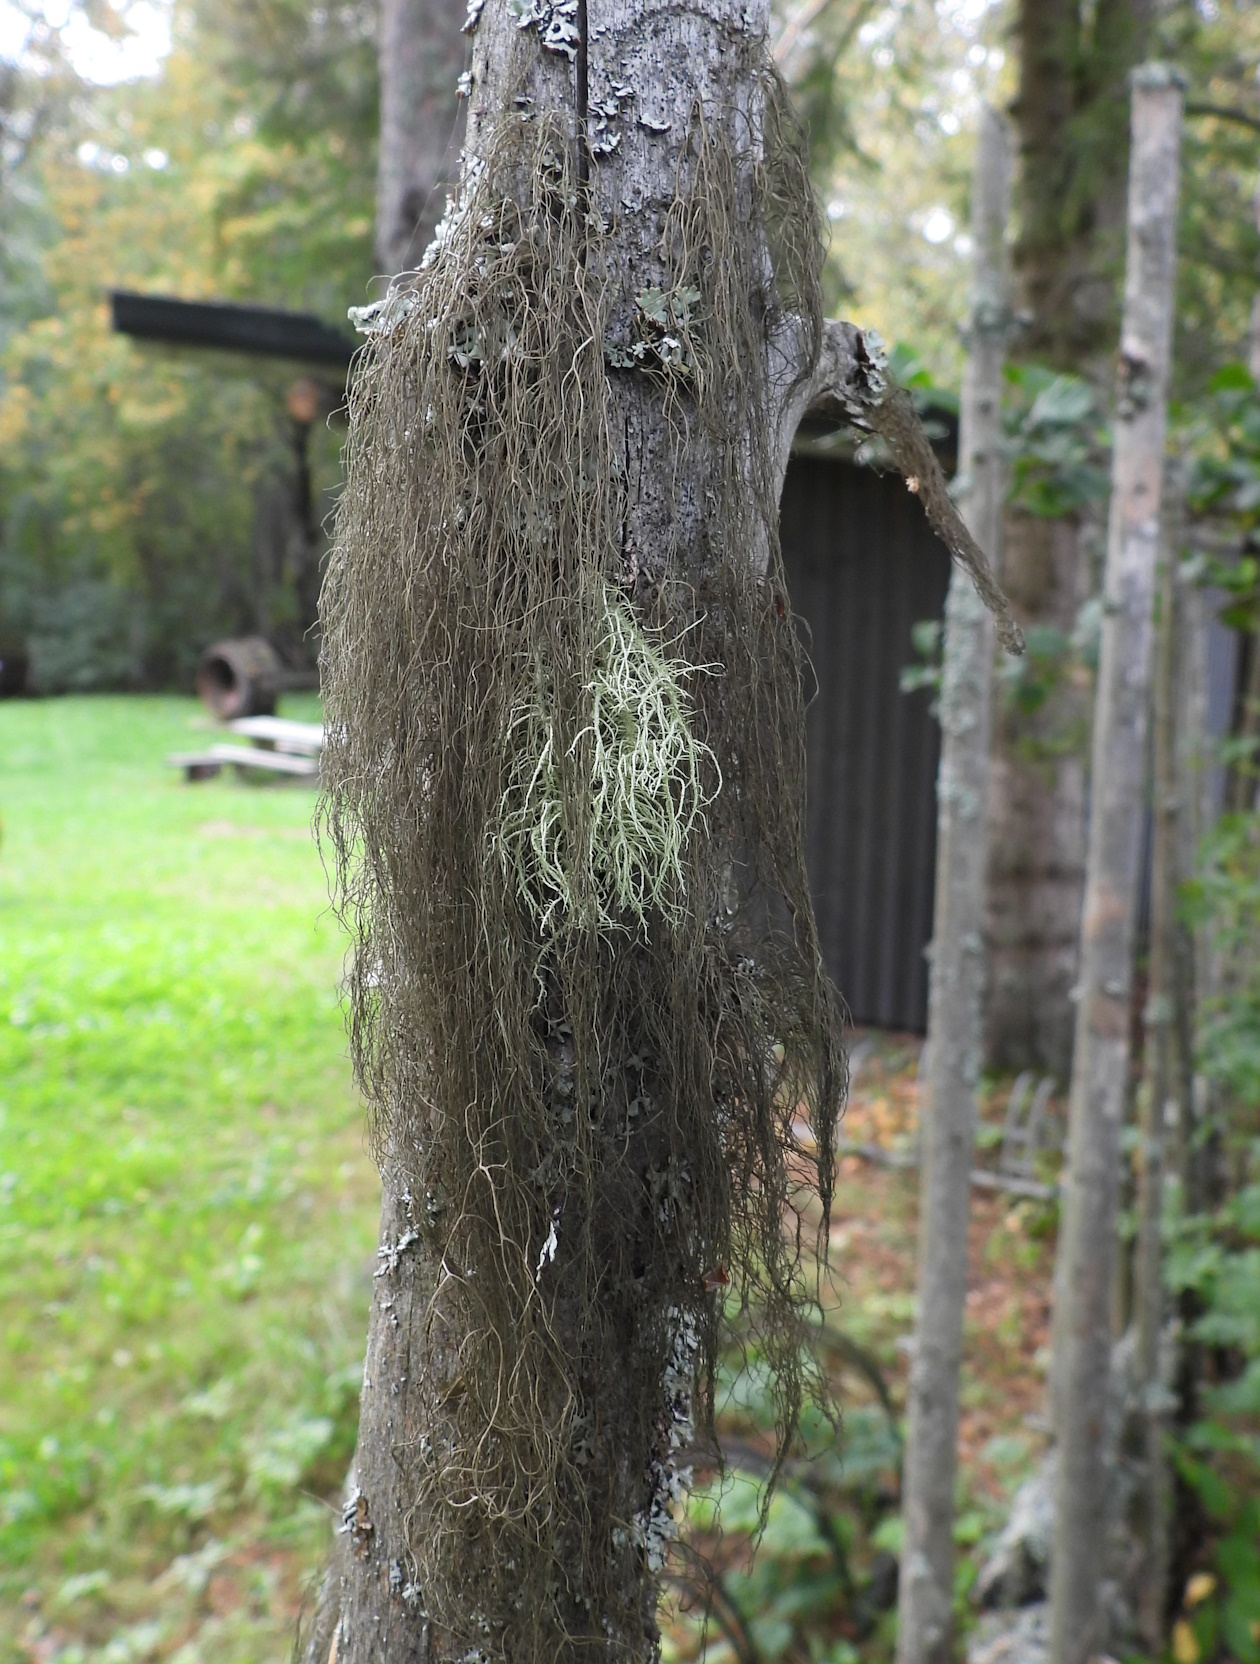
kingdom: Fungi
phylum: Ascomycota
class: Lecanoromycetes
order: Lecanorales
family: Parmeliaceae
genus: Bryoria
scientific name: Bryoria fuscescens
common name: Pale-footed horsehair lichen
